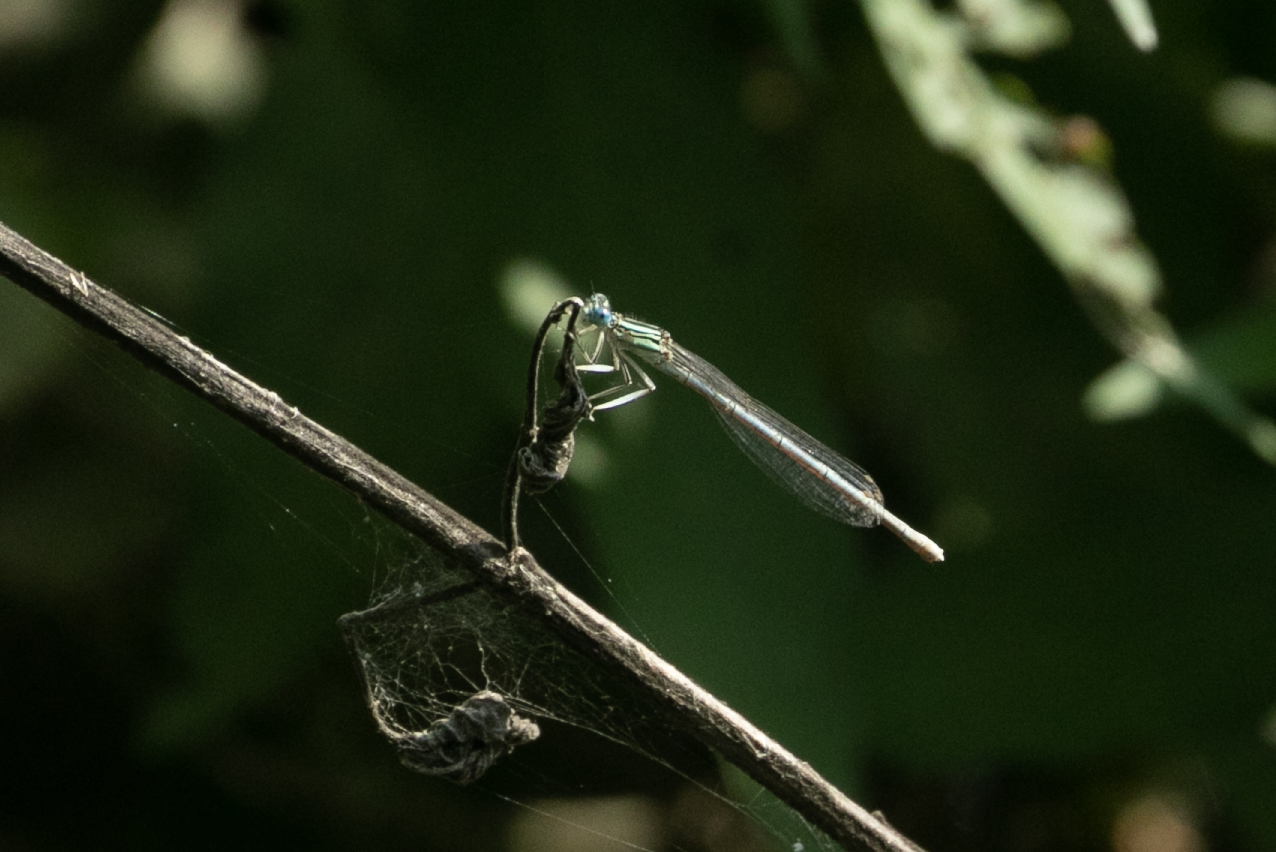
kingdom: Animalia
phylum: Arthropoda
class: Insecta
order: Odonata
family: Platycnemididae
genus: Platycnemis
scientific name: Platycnemis pennipes
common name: White-legged damselfly
